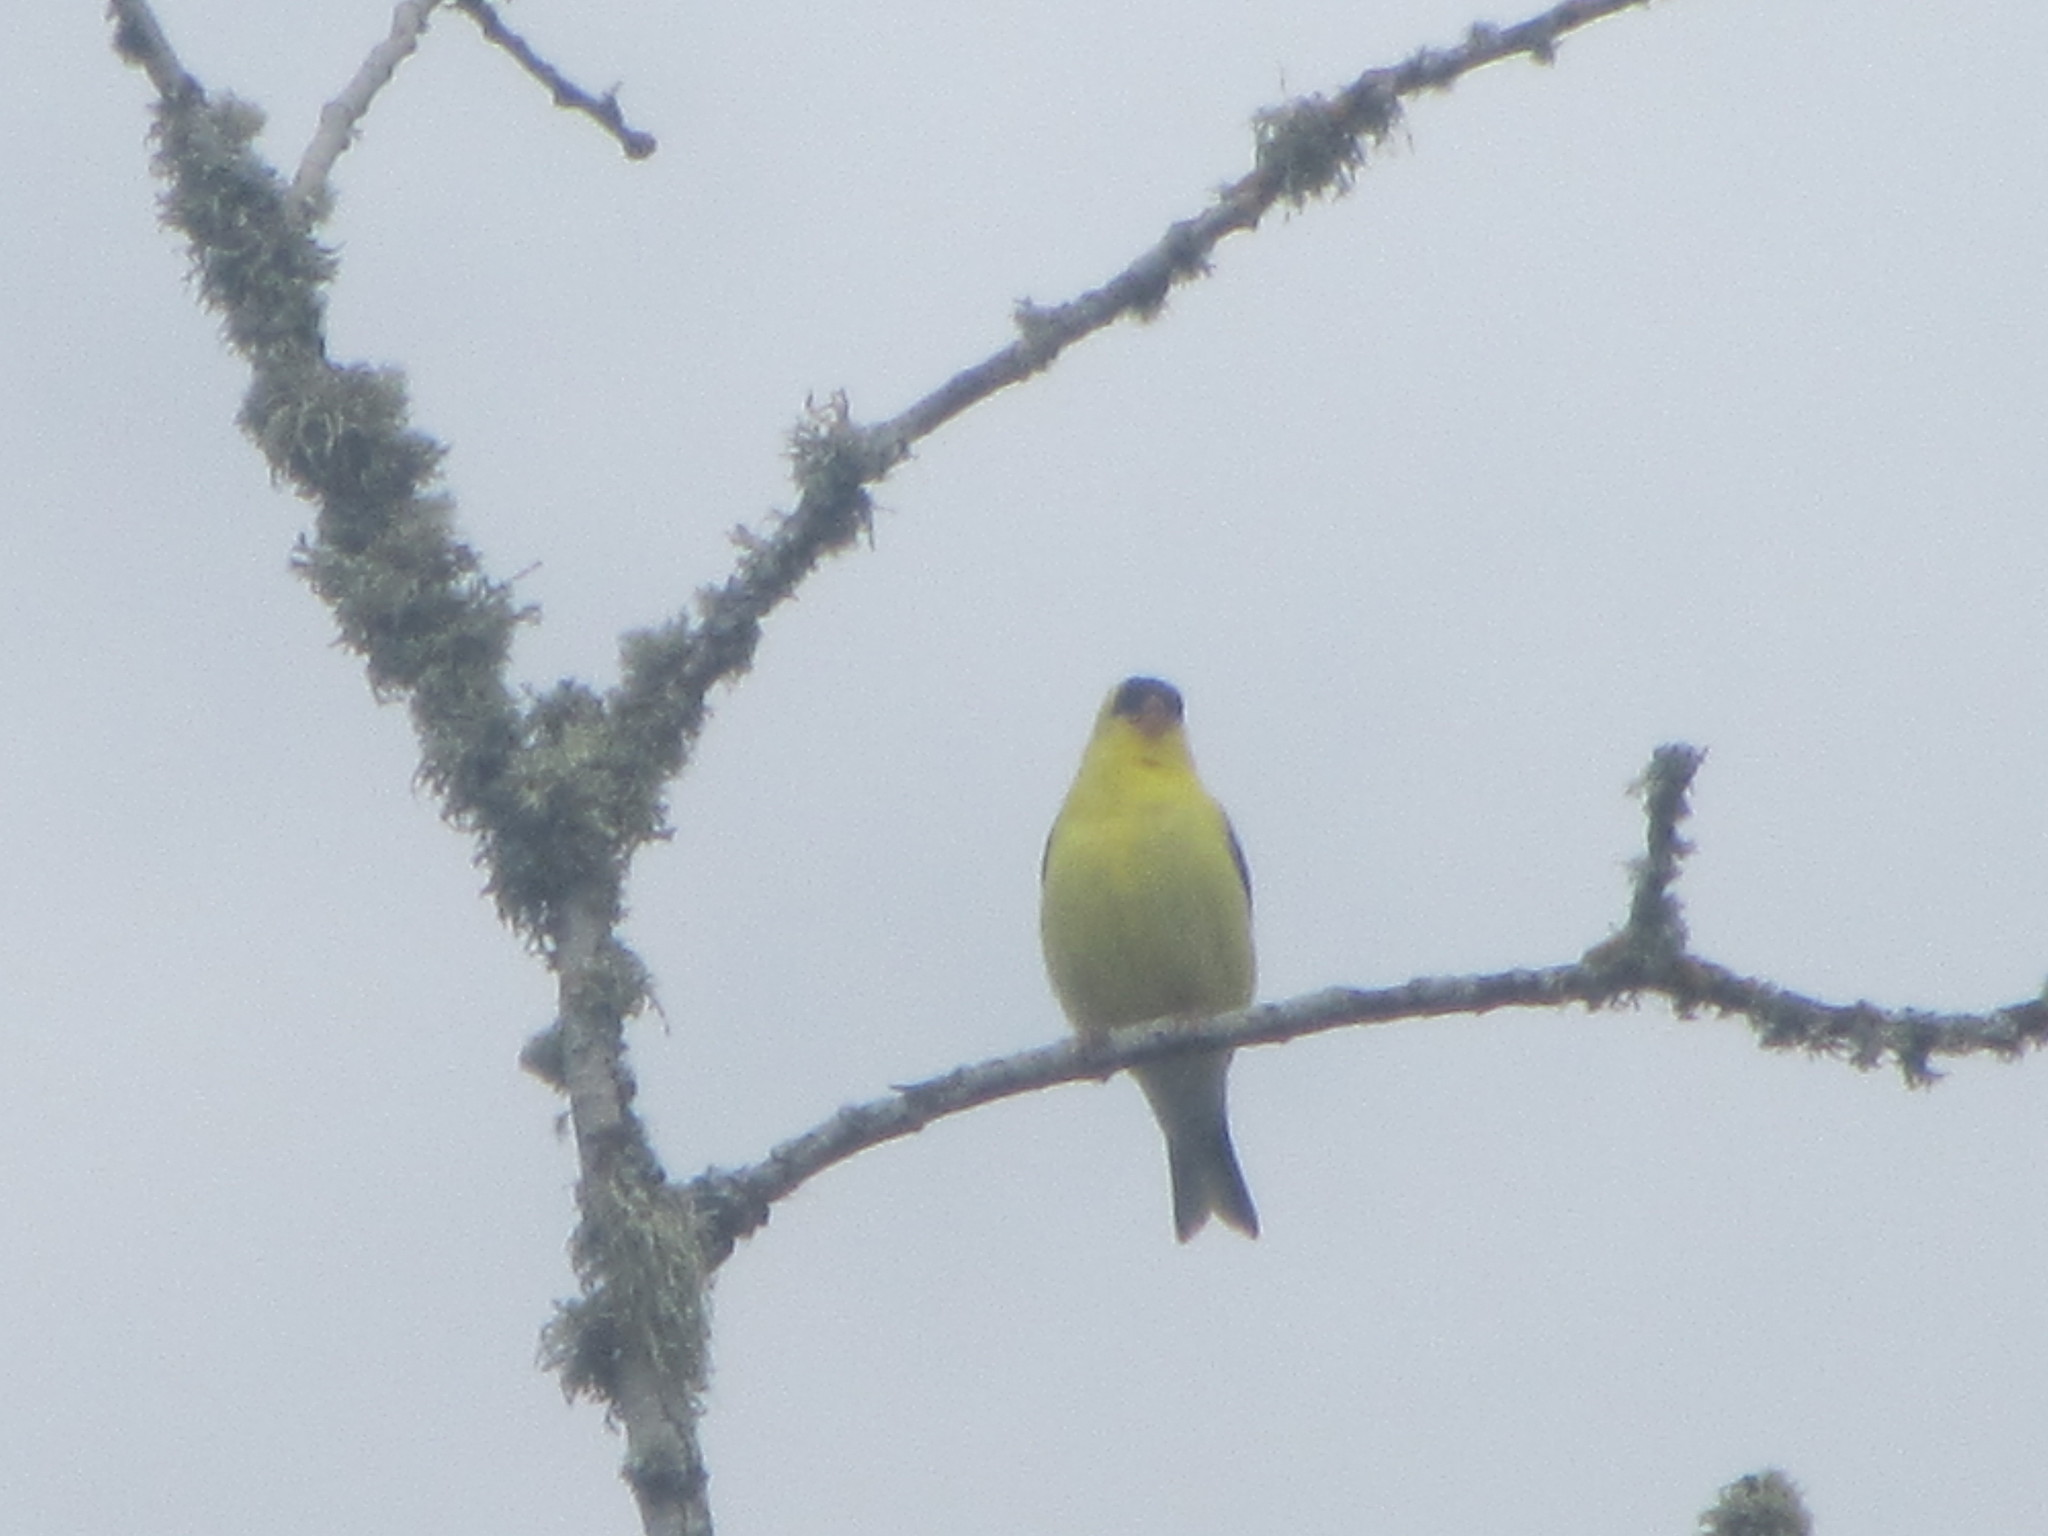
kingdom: Animalia
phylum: Chordata
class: Aves
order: Passeriformes
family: Fringillidae
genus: Spinus
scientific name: Spinus tristis
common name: American goldfinch
